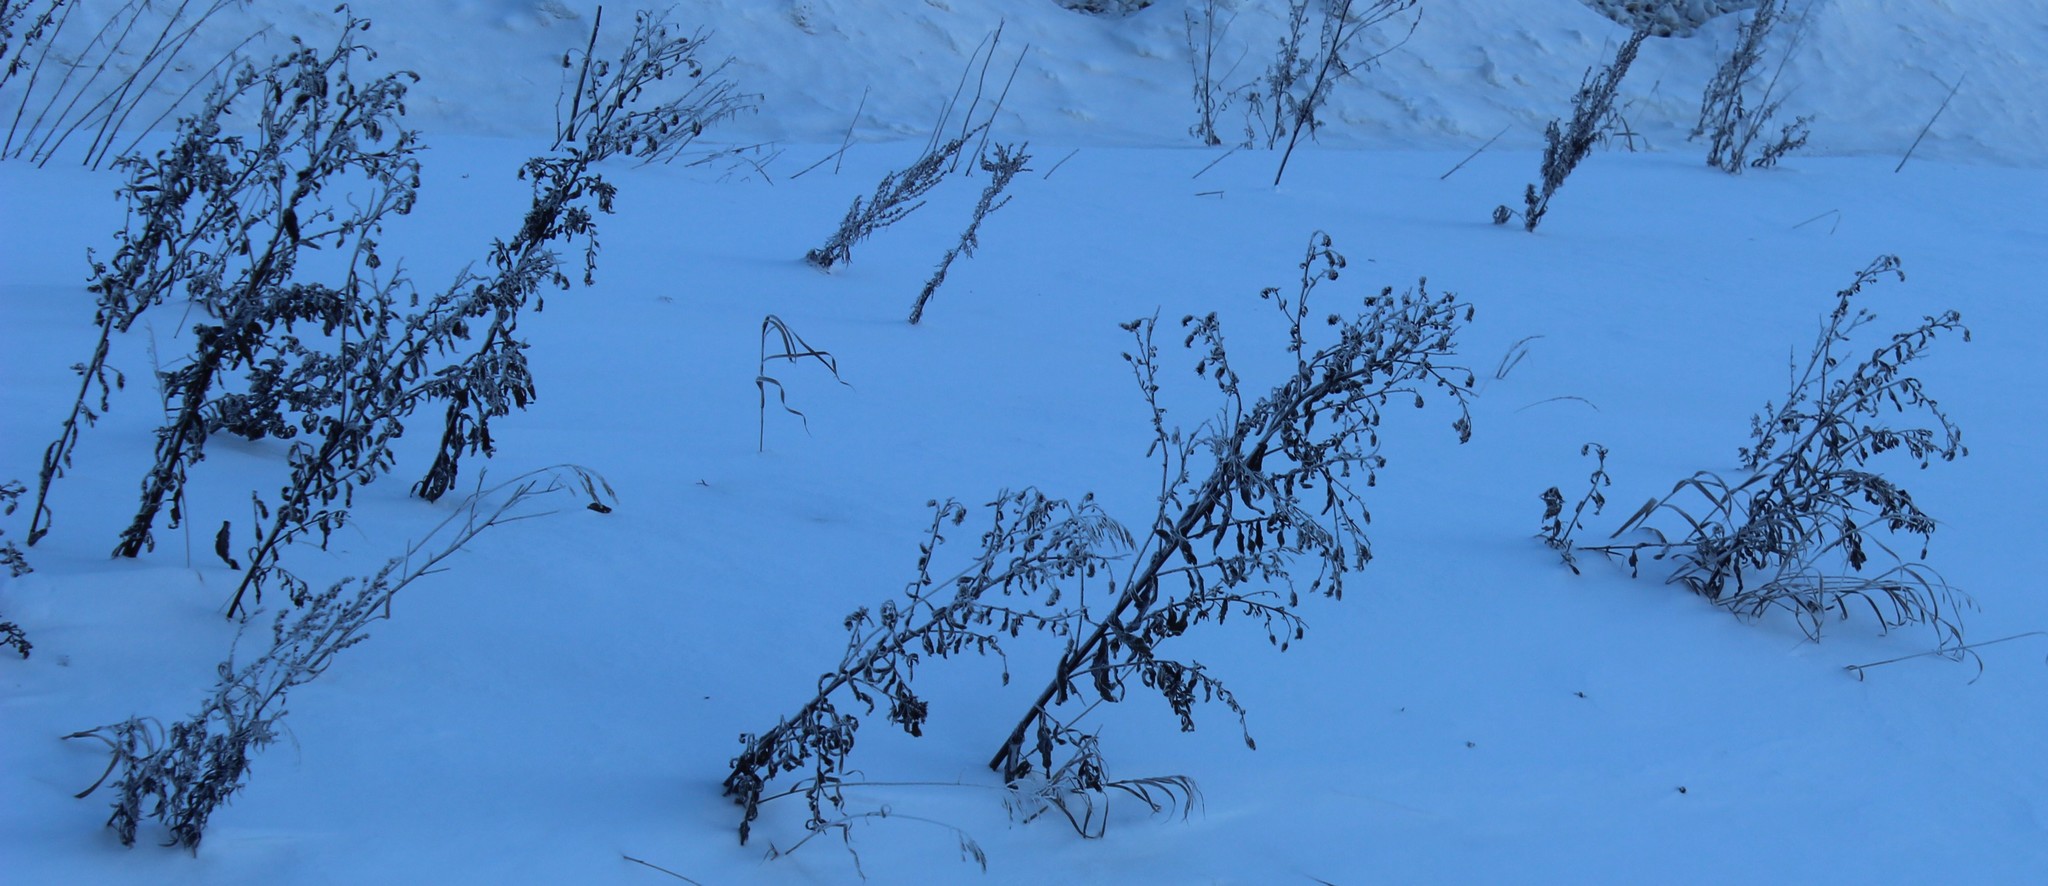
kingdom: Plantae
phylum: Tracheophyta
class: Magnoliopsida
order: Asterales
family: Asteraceae
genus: Cirsium
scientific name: Cirsium arvense
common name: Creeping thistle
